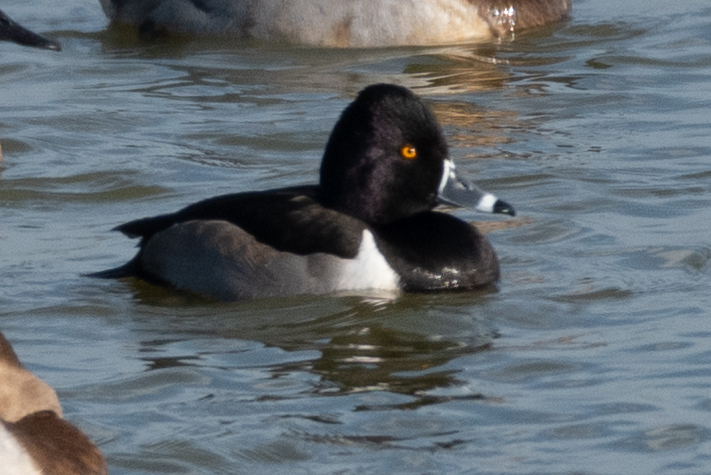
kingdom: Animalia
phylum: Chordata
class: Aves
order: Anseriformes
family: Anatidae
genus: Aythya
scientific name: Aythya collaris
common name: Ring-necked duck
